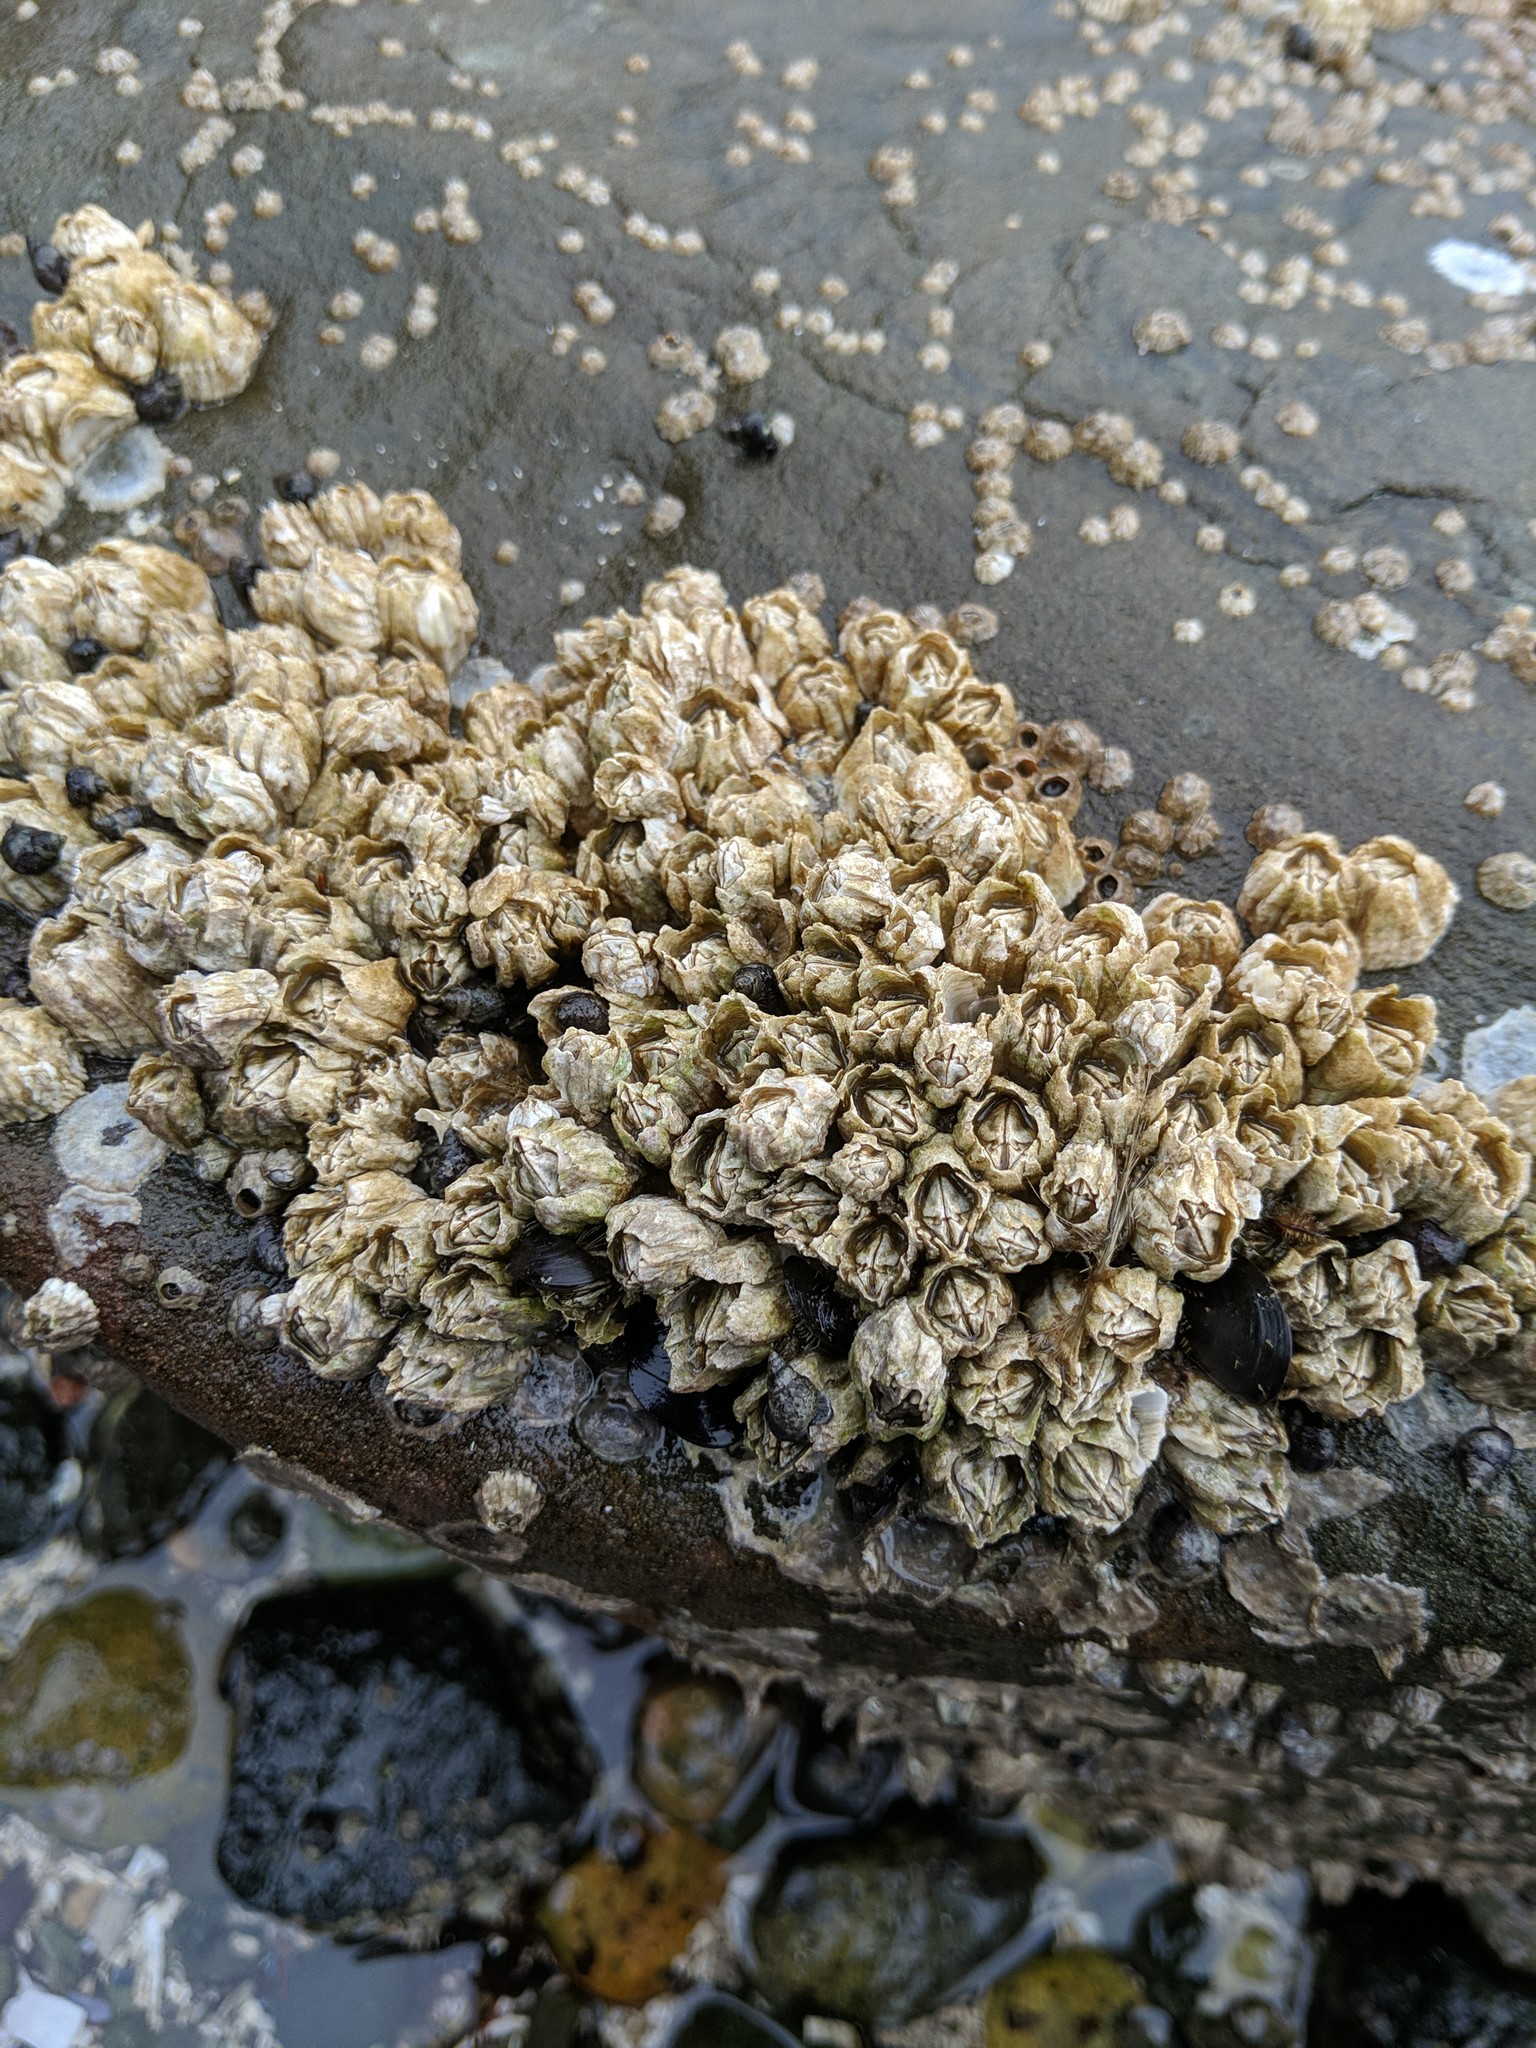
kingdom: Animalia
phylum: Arthropoda
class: Maxillopoda
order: Sessilia
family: Balanidae
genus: Balanus
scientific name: Balanus glandula
